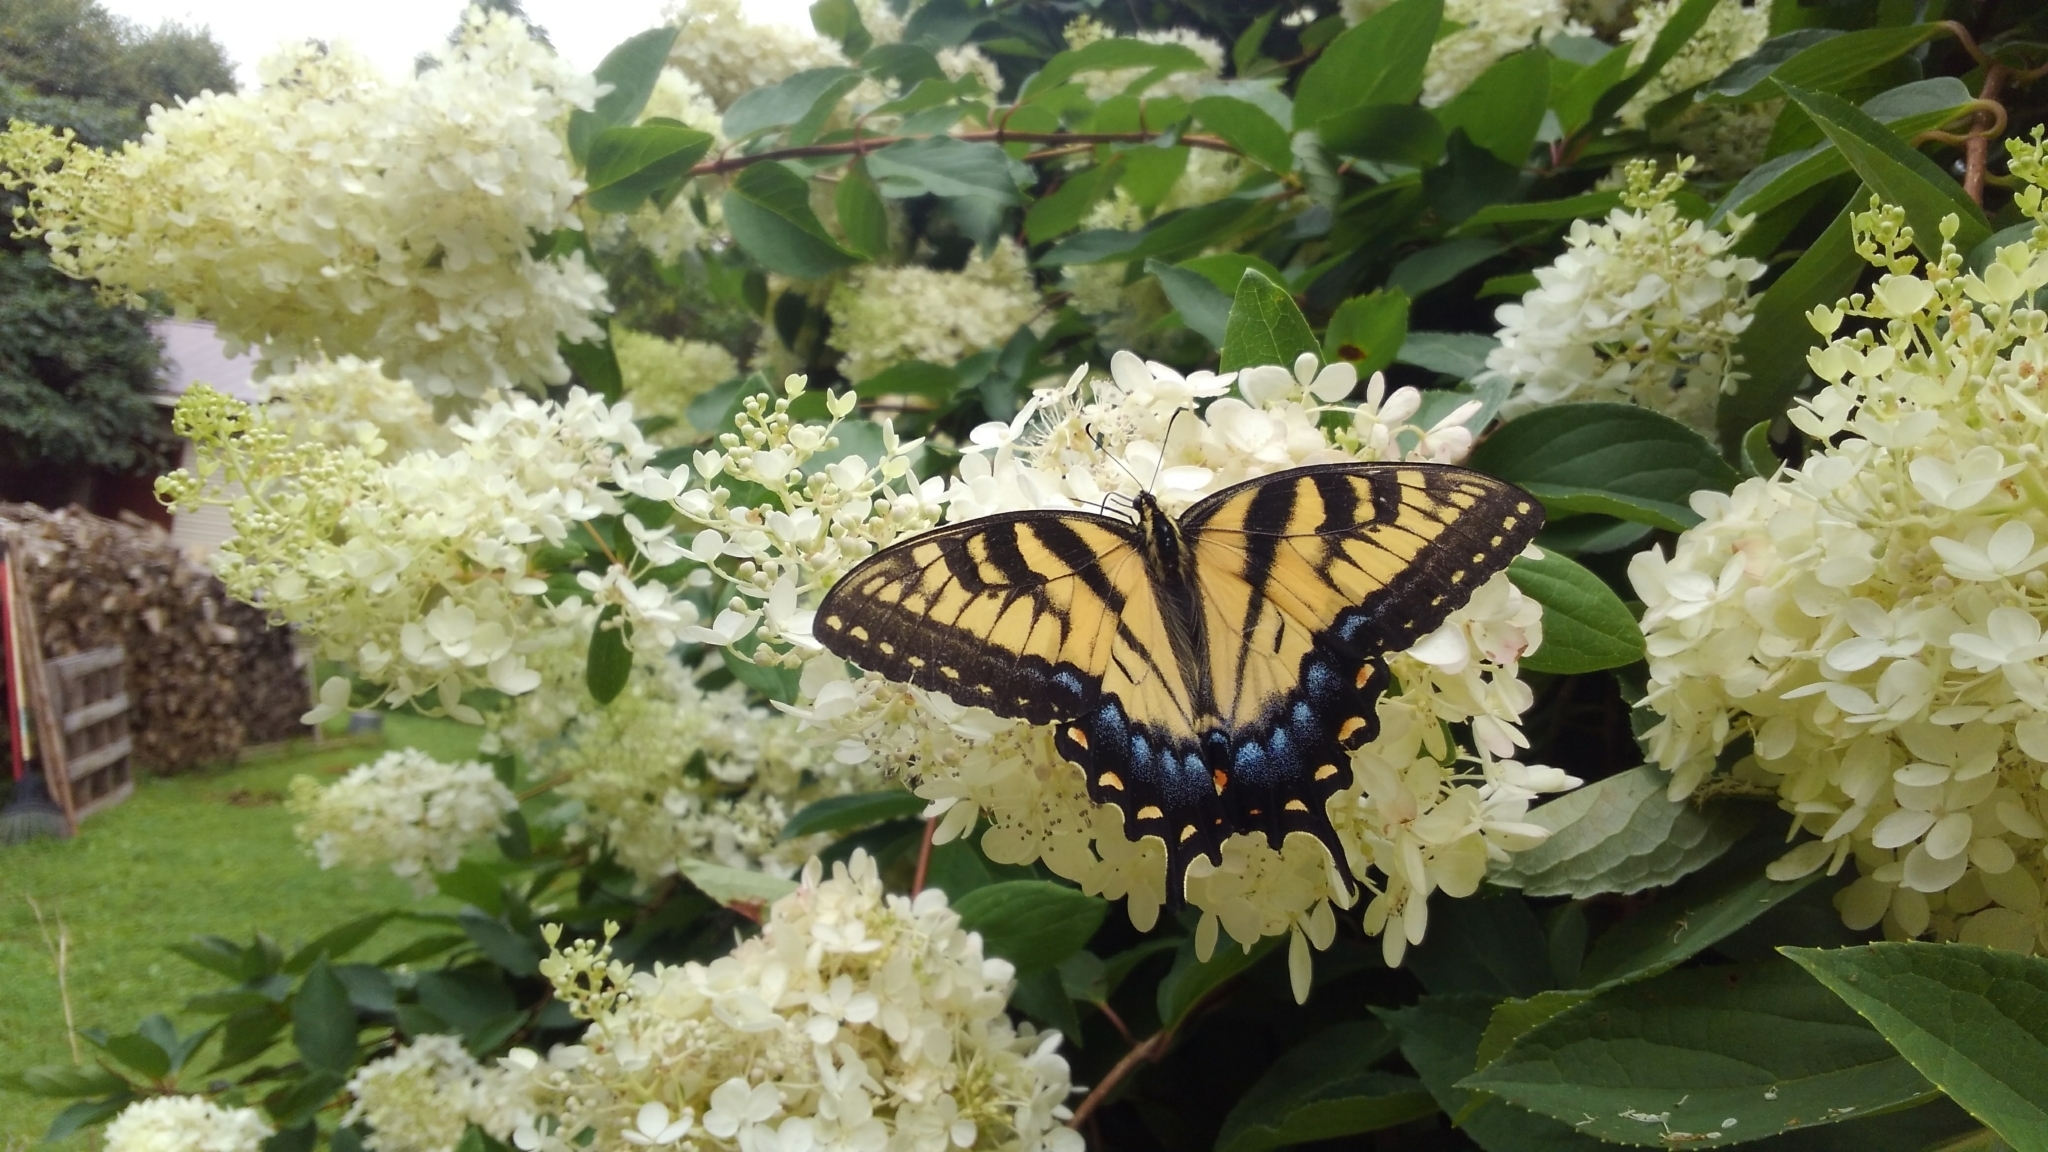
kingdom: Animalia
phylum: Arthropoda
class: Insecta
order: Lepidoptera
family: Papilionidae
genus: Papilio
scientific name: Papilio glaucus
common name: Tiger swallowtail
